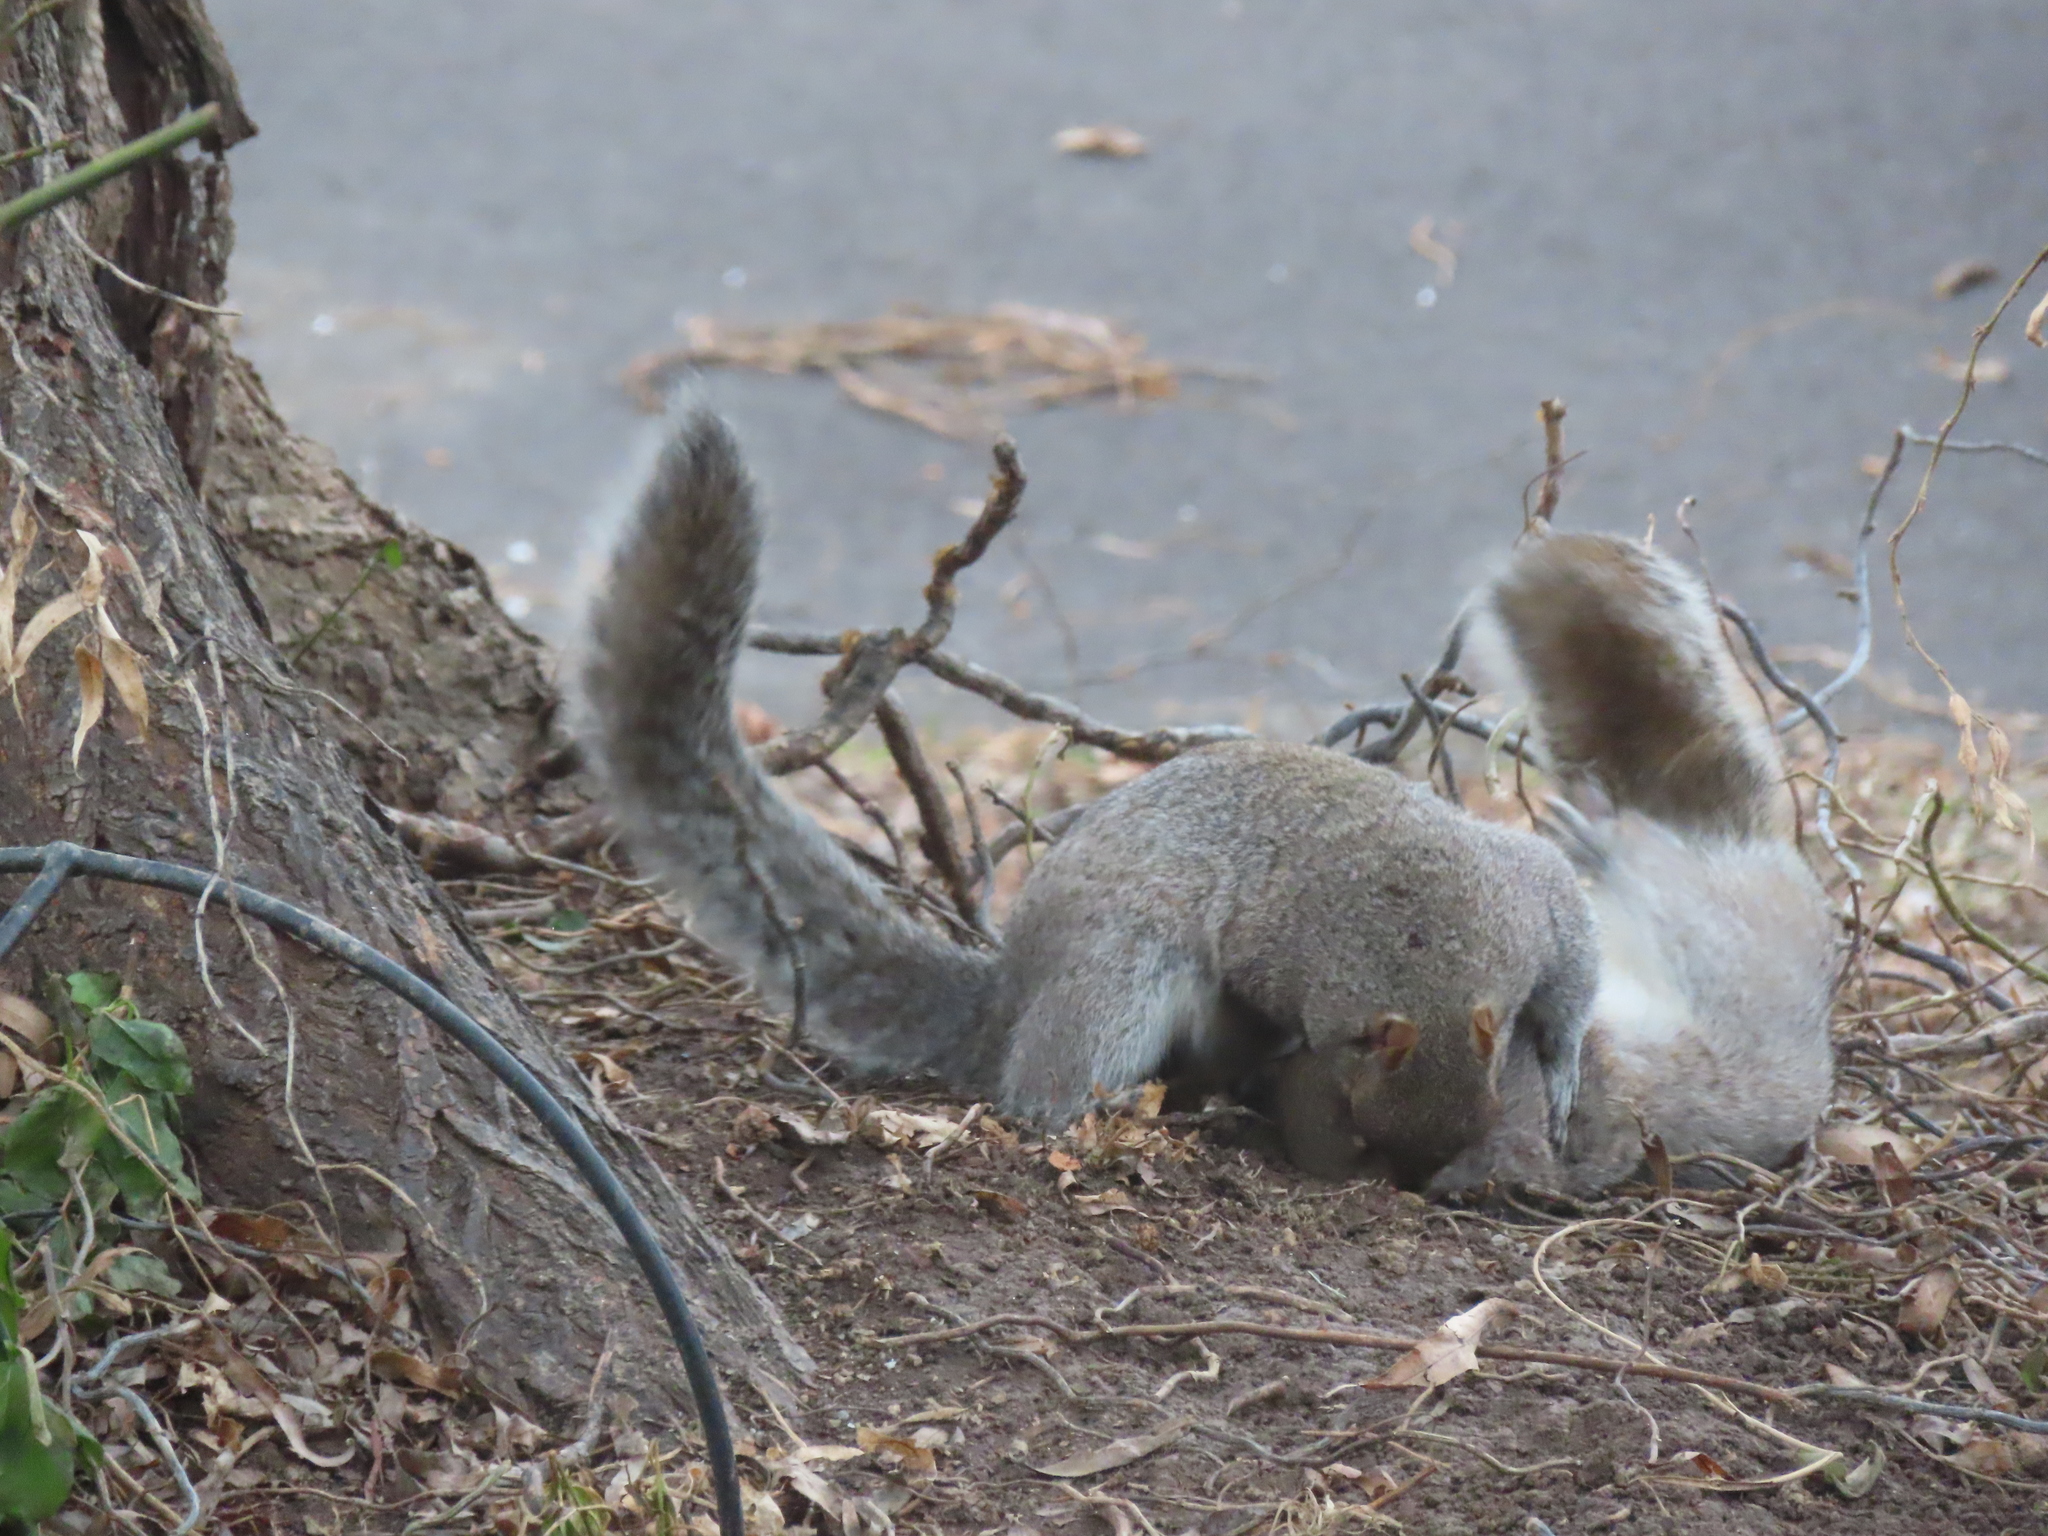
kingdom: Animalia
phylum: Chordata
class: Mammalia
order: Rodentia
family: Sciuridae
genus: Sciurus
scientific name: Sciurus carolinensis
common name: Eastern gray squirrel
